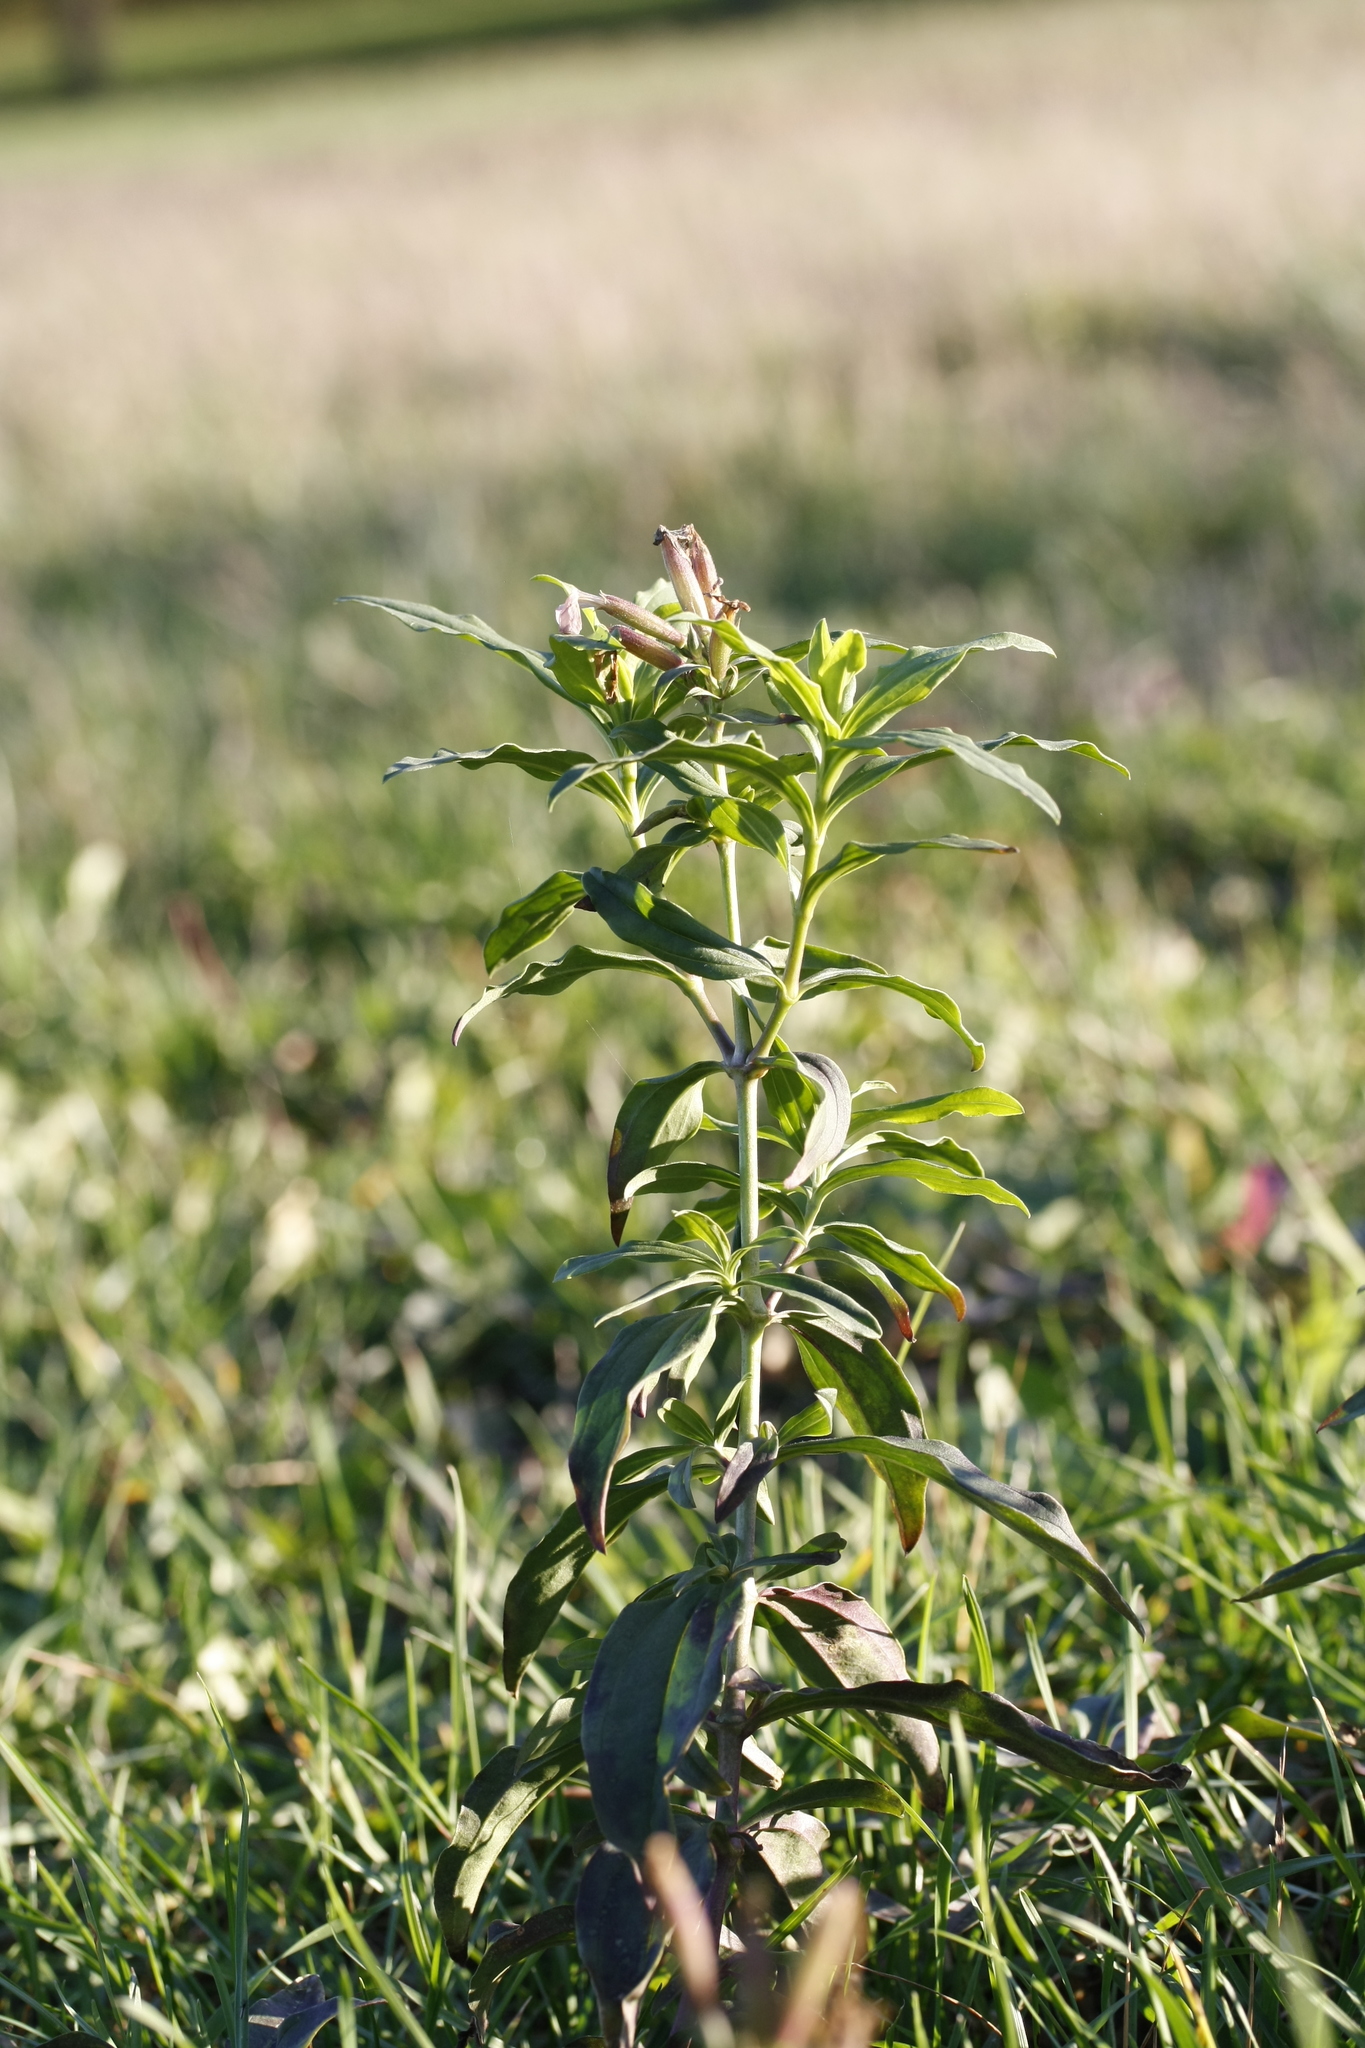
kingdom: Plantae
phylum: Tracheophyta
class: Magnoliopsida
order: Caryophyllales
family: Caryophyllaceae
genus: Saponaria
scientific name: Saponaria officinalis
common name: Soapwort
